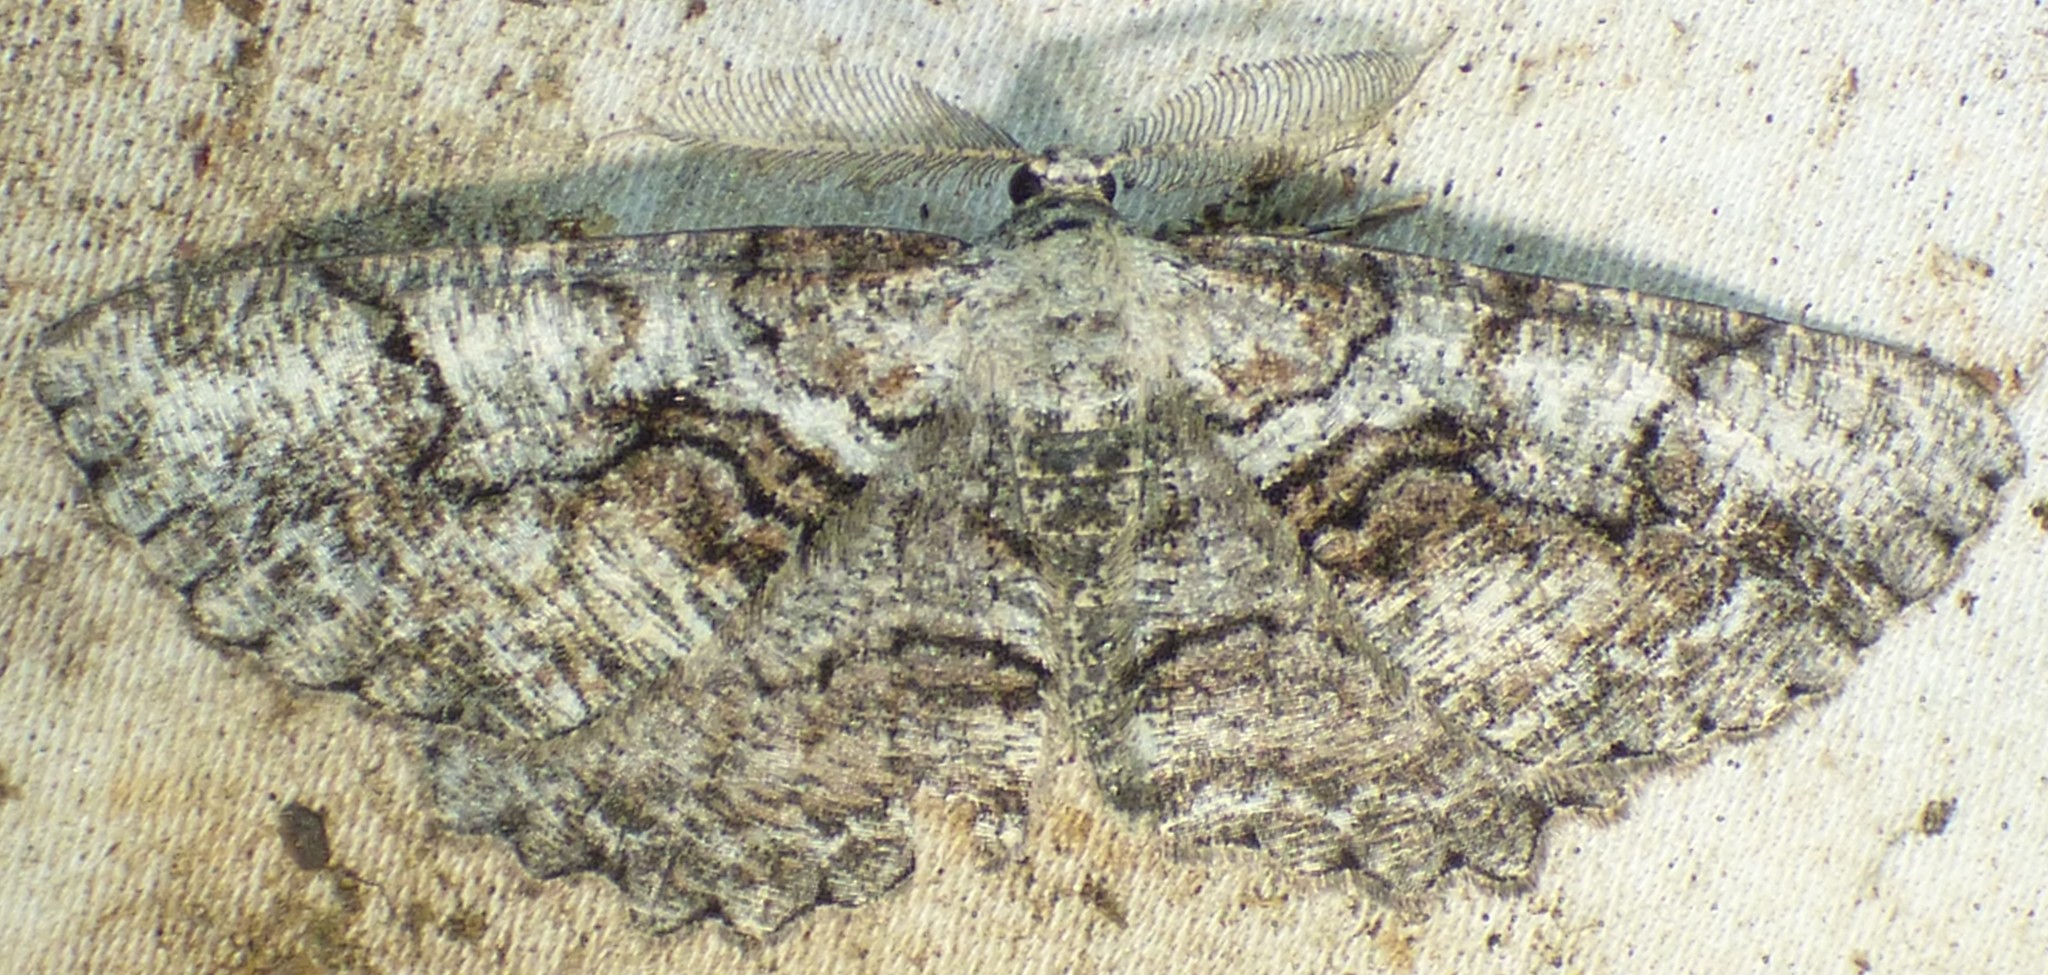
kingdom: Animalia
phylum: Arthropoda
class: Insecta
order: Lepidoptera
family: Geometridae
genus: Cymatophora
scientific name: Cymatophora approximaria
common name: Giant gray moth
